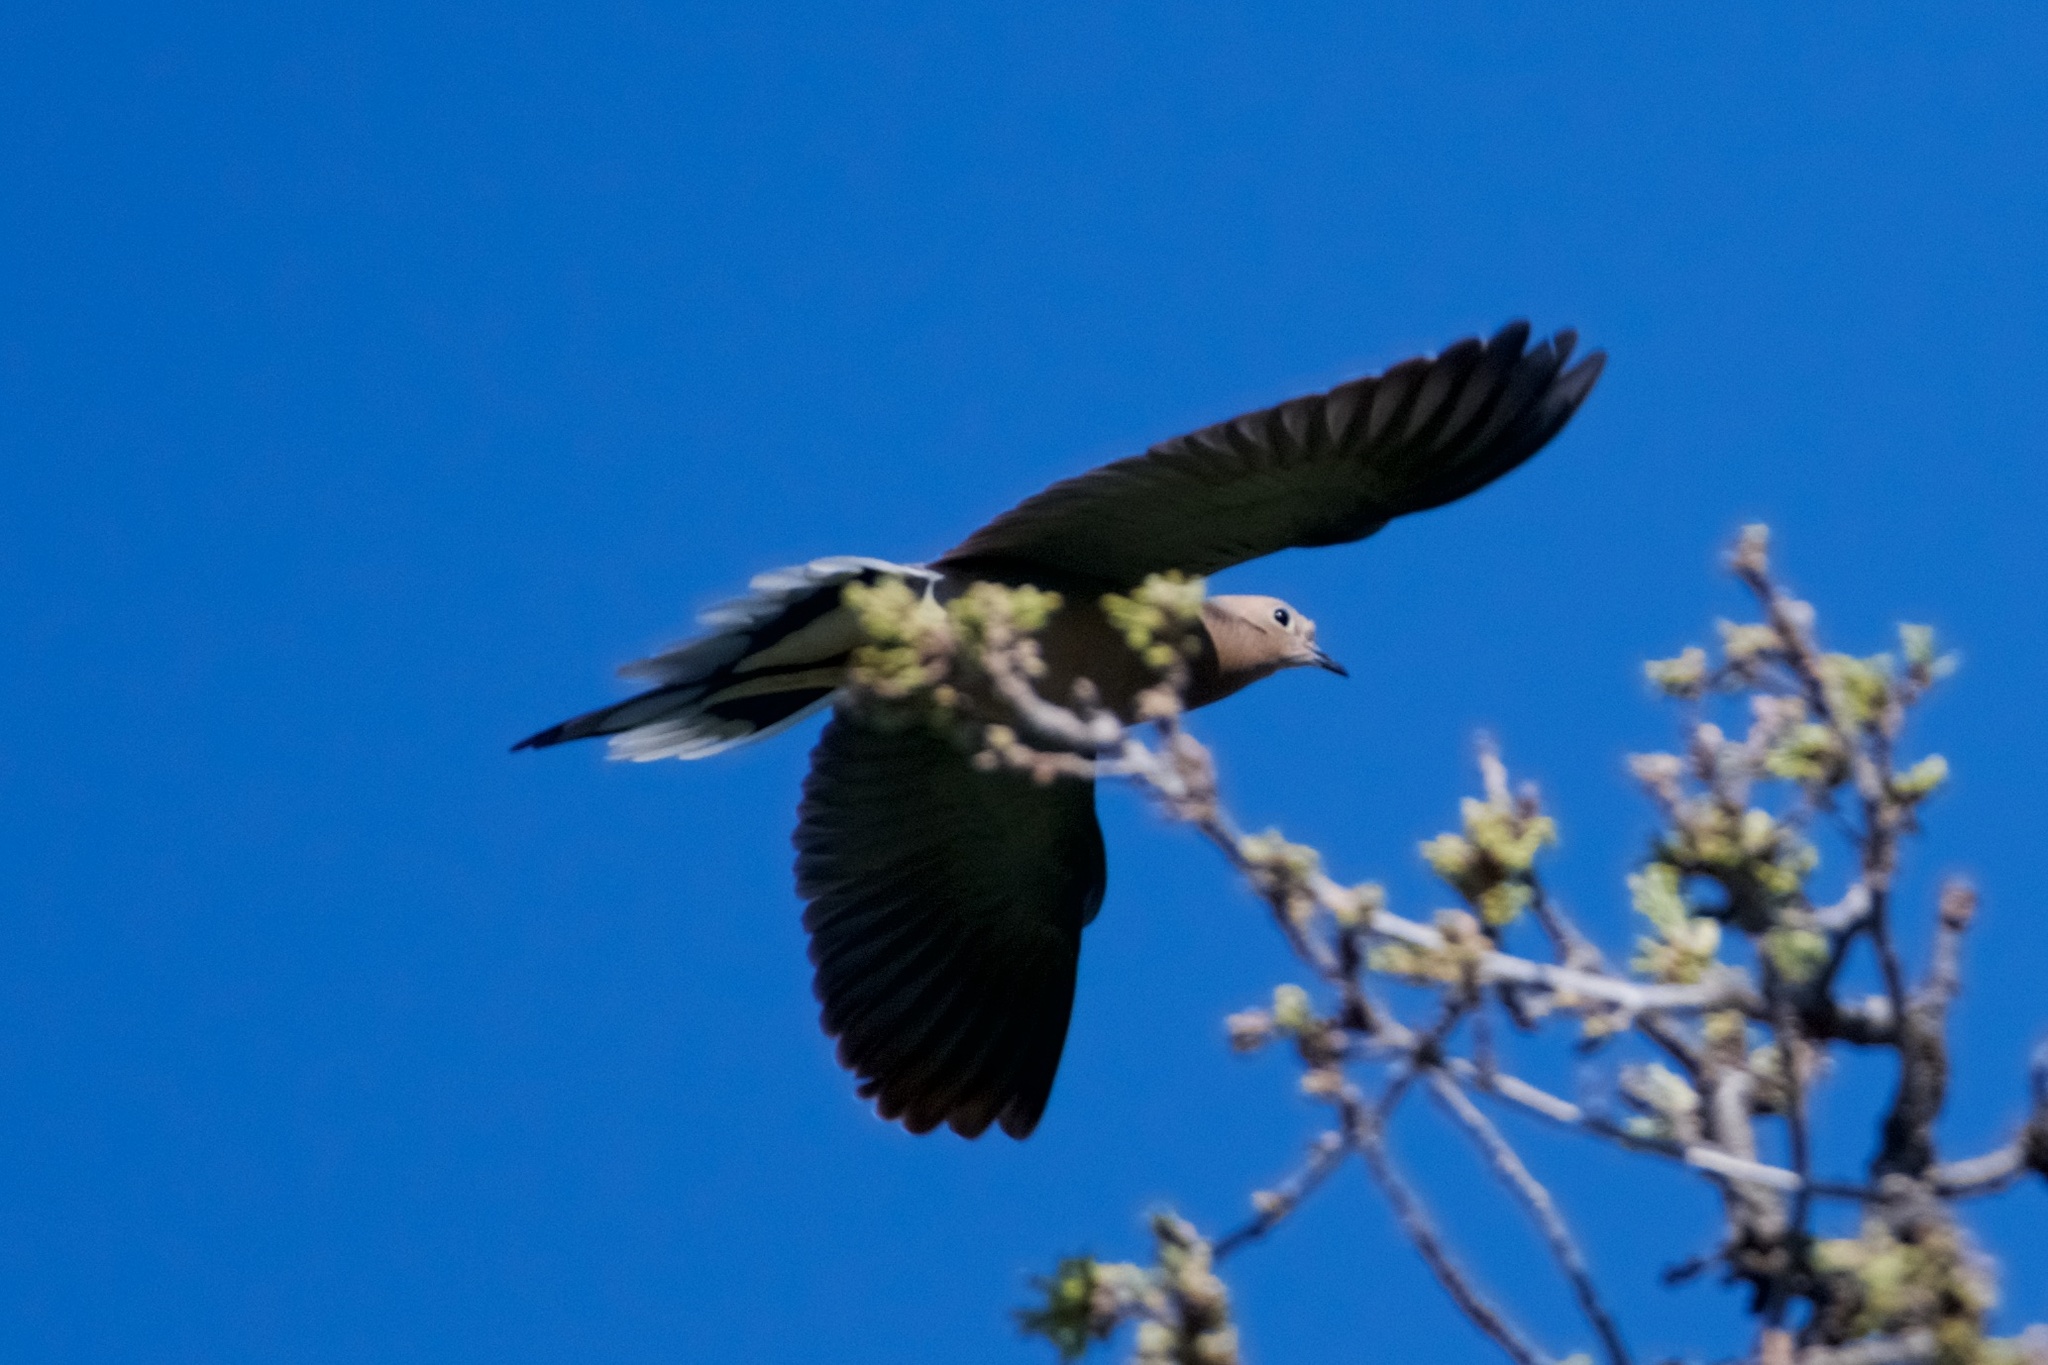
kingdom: Animalia
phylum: Chordata
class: Aves
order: Columbiformes
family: Columbidae
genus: Zenaida
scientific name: Zenaida macroura
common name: Mourning dove
